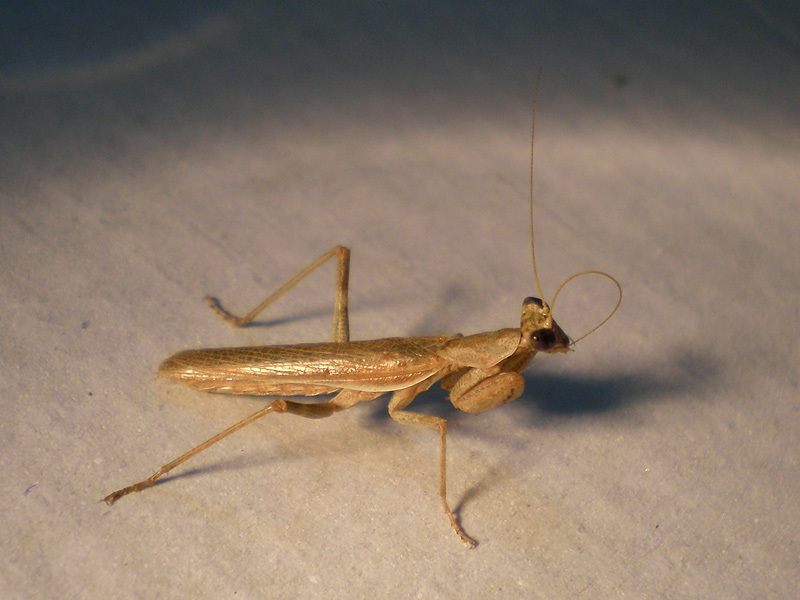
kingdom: Animalia
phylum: Arthropoda
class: Insecta
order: Mantodea
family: Amelidae
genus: Ameles
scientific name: Ameles spallanzania
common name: European dwarf mantis
